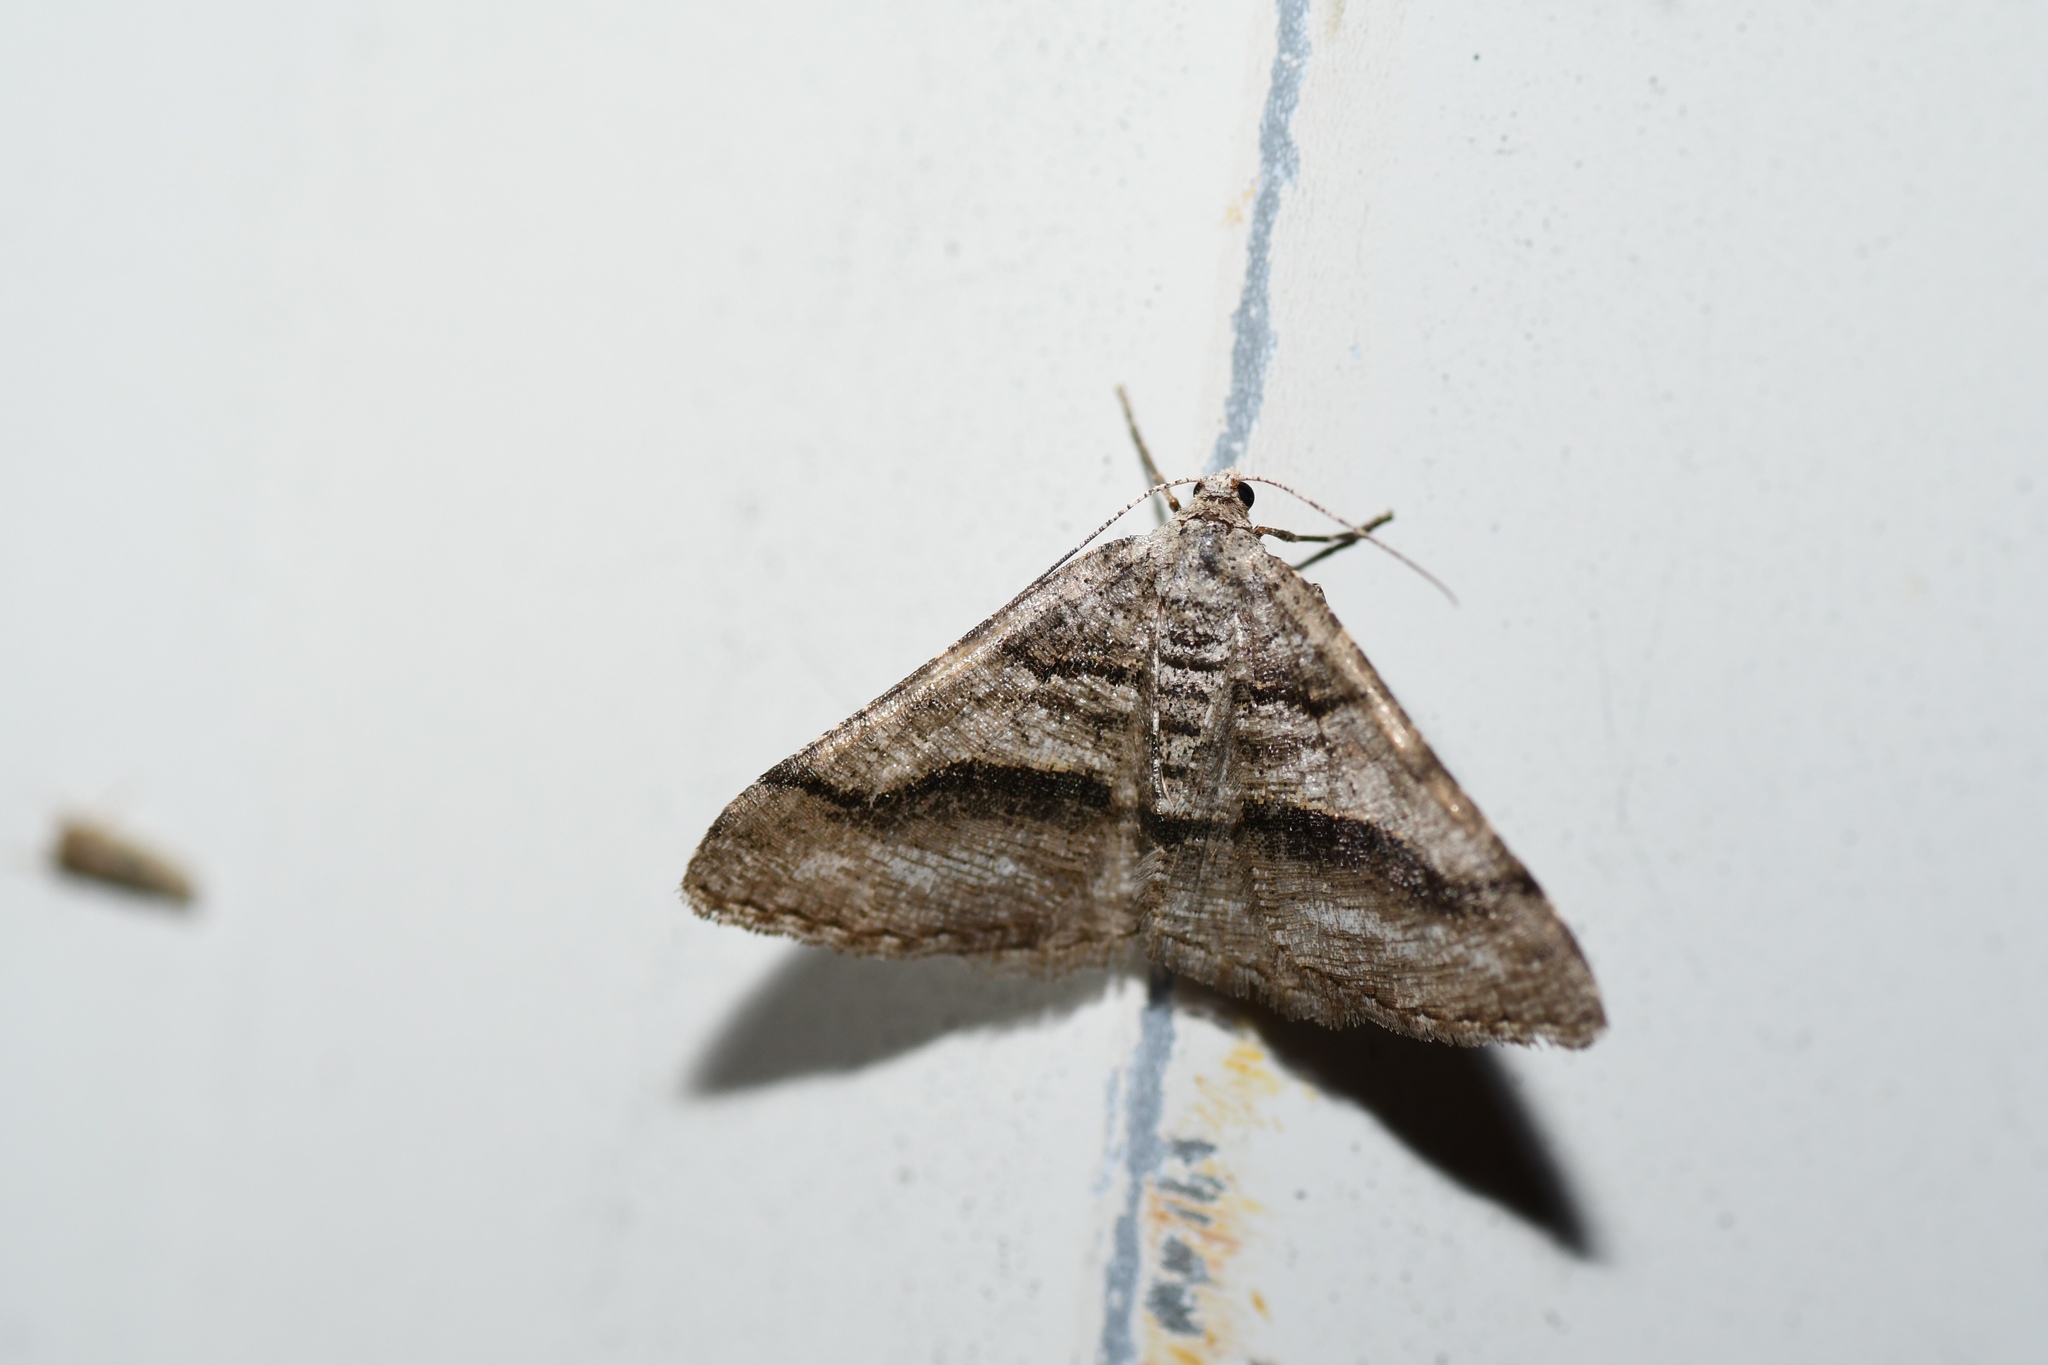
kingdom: Animalia
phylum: Arthropoda
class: Insecta
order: Lepidoptera
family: Geometridae
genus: Digrammia
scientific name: Digrammia continuata
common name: Curve-lined angle
